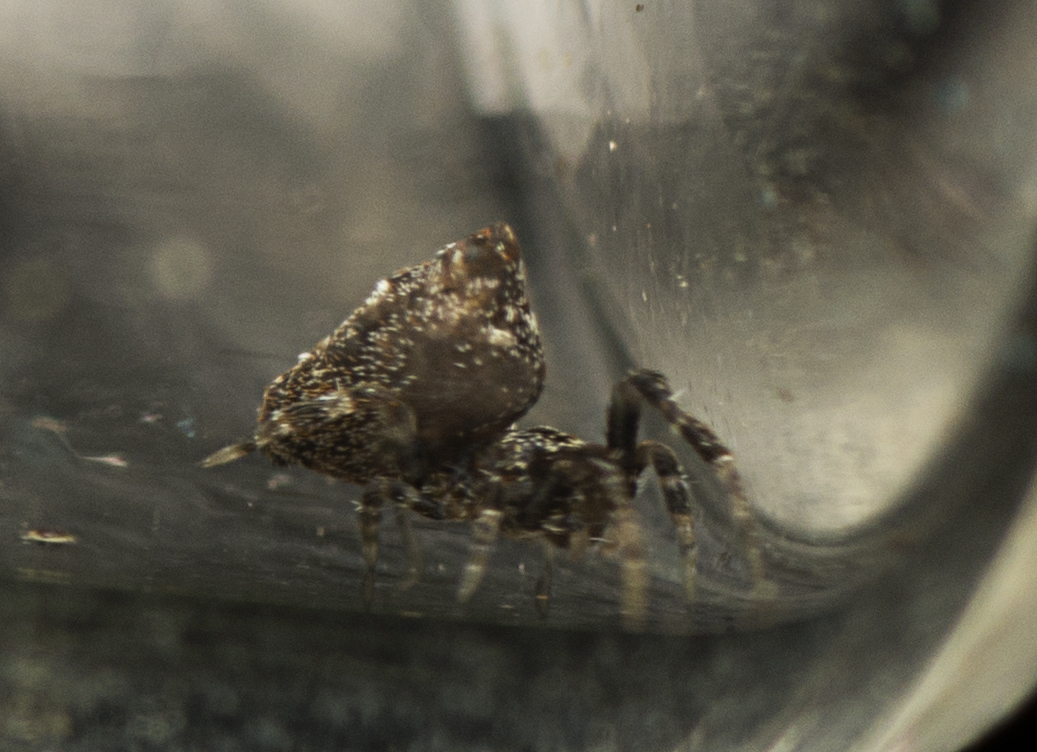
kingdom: Animalia
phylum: Arthropoda
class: Arachnida
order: Araneae
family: Uloboridae
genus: Philoponella
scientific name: Philoponella congregabilis
